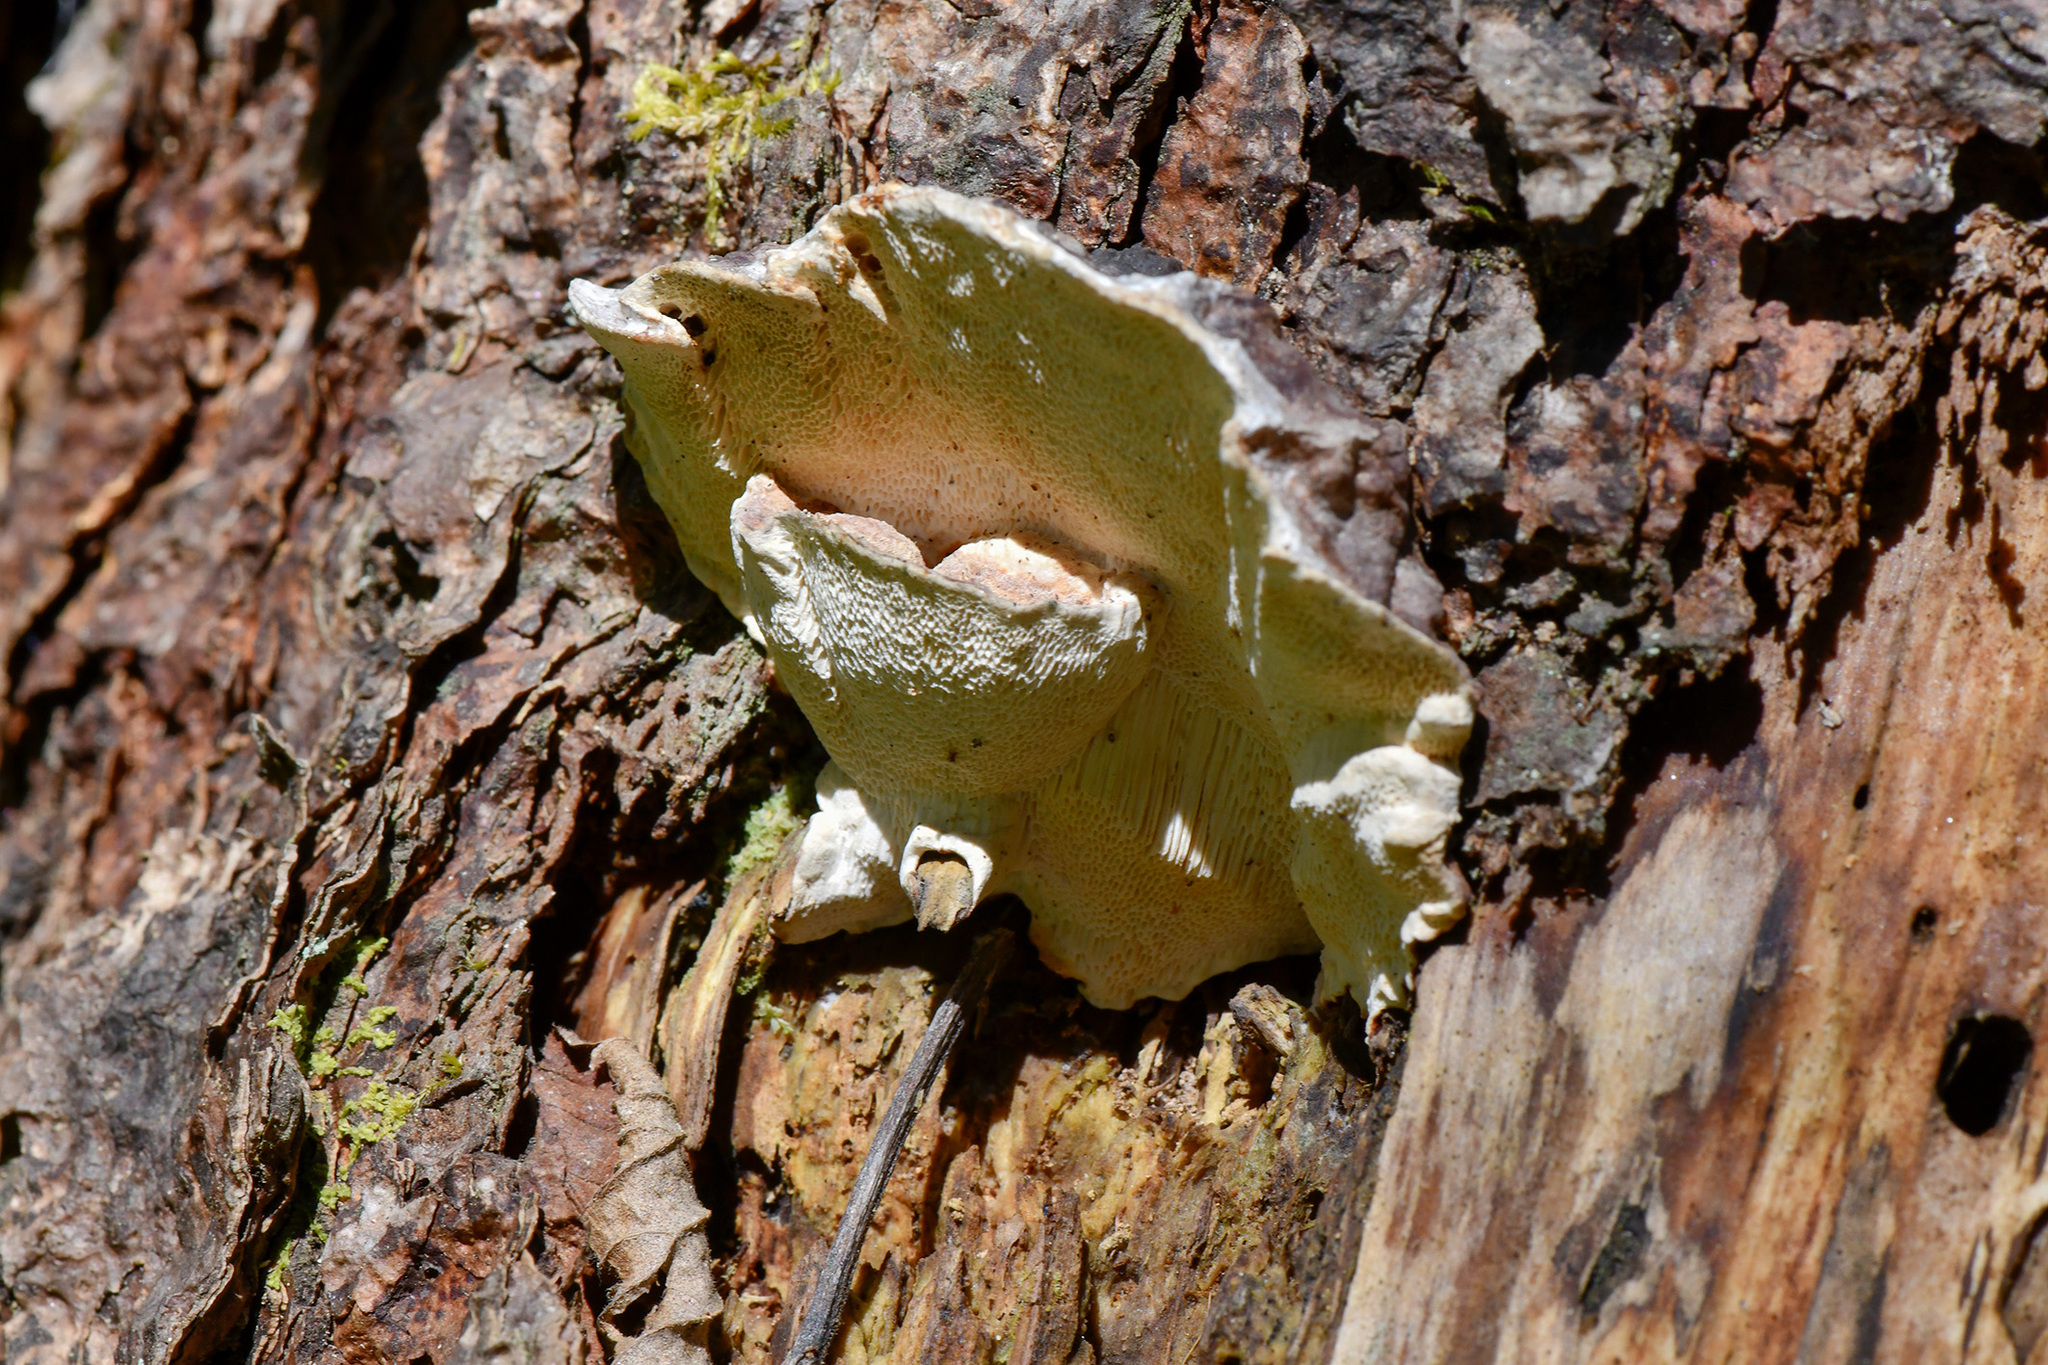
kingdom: Fungi
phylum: Basidiomycota
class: Agaricomycetes
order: Polyporales
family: Polyporaceae
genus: Trametes
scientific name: Trametes pubescens
